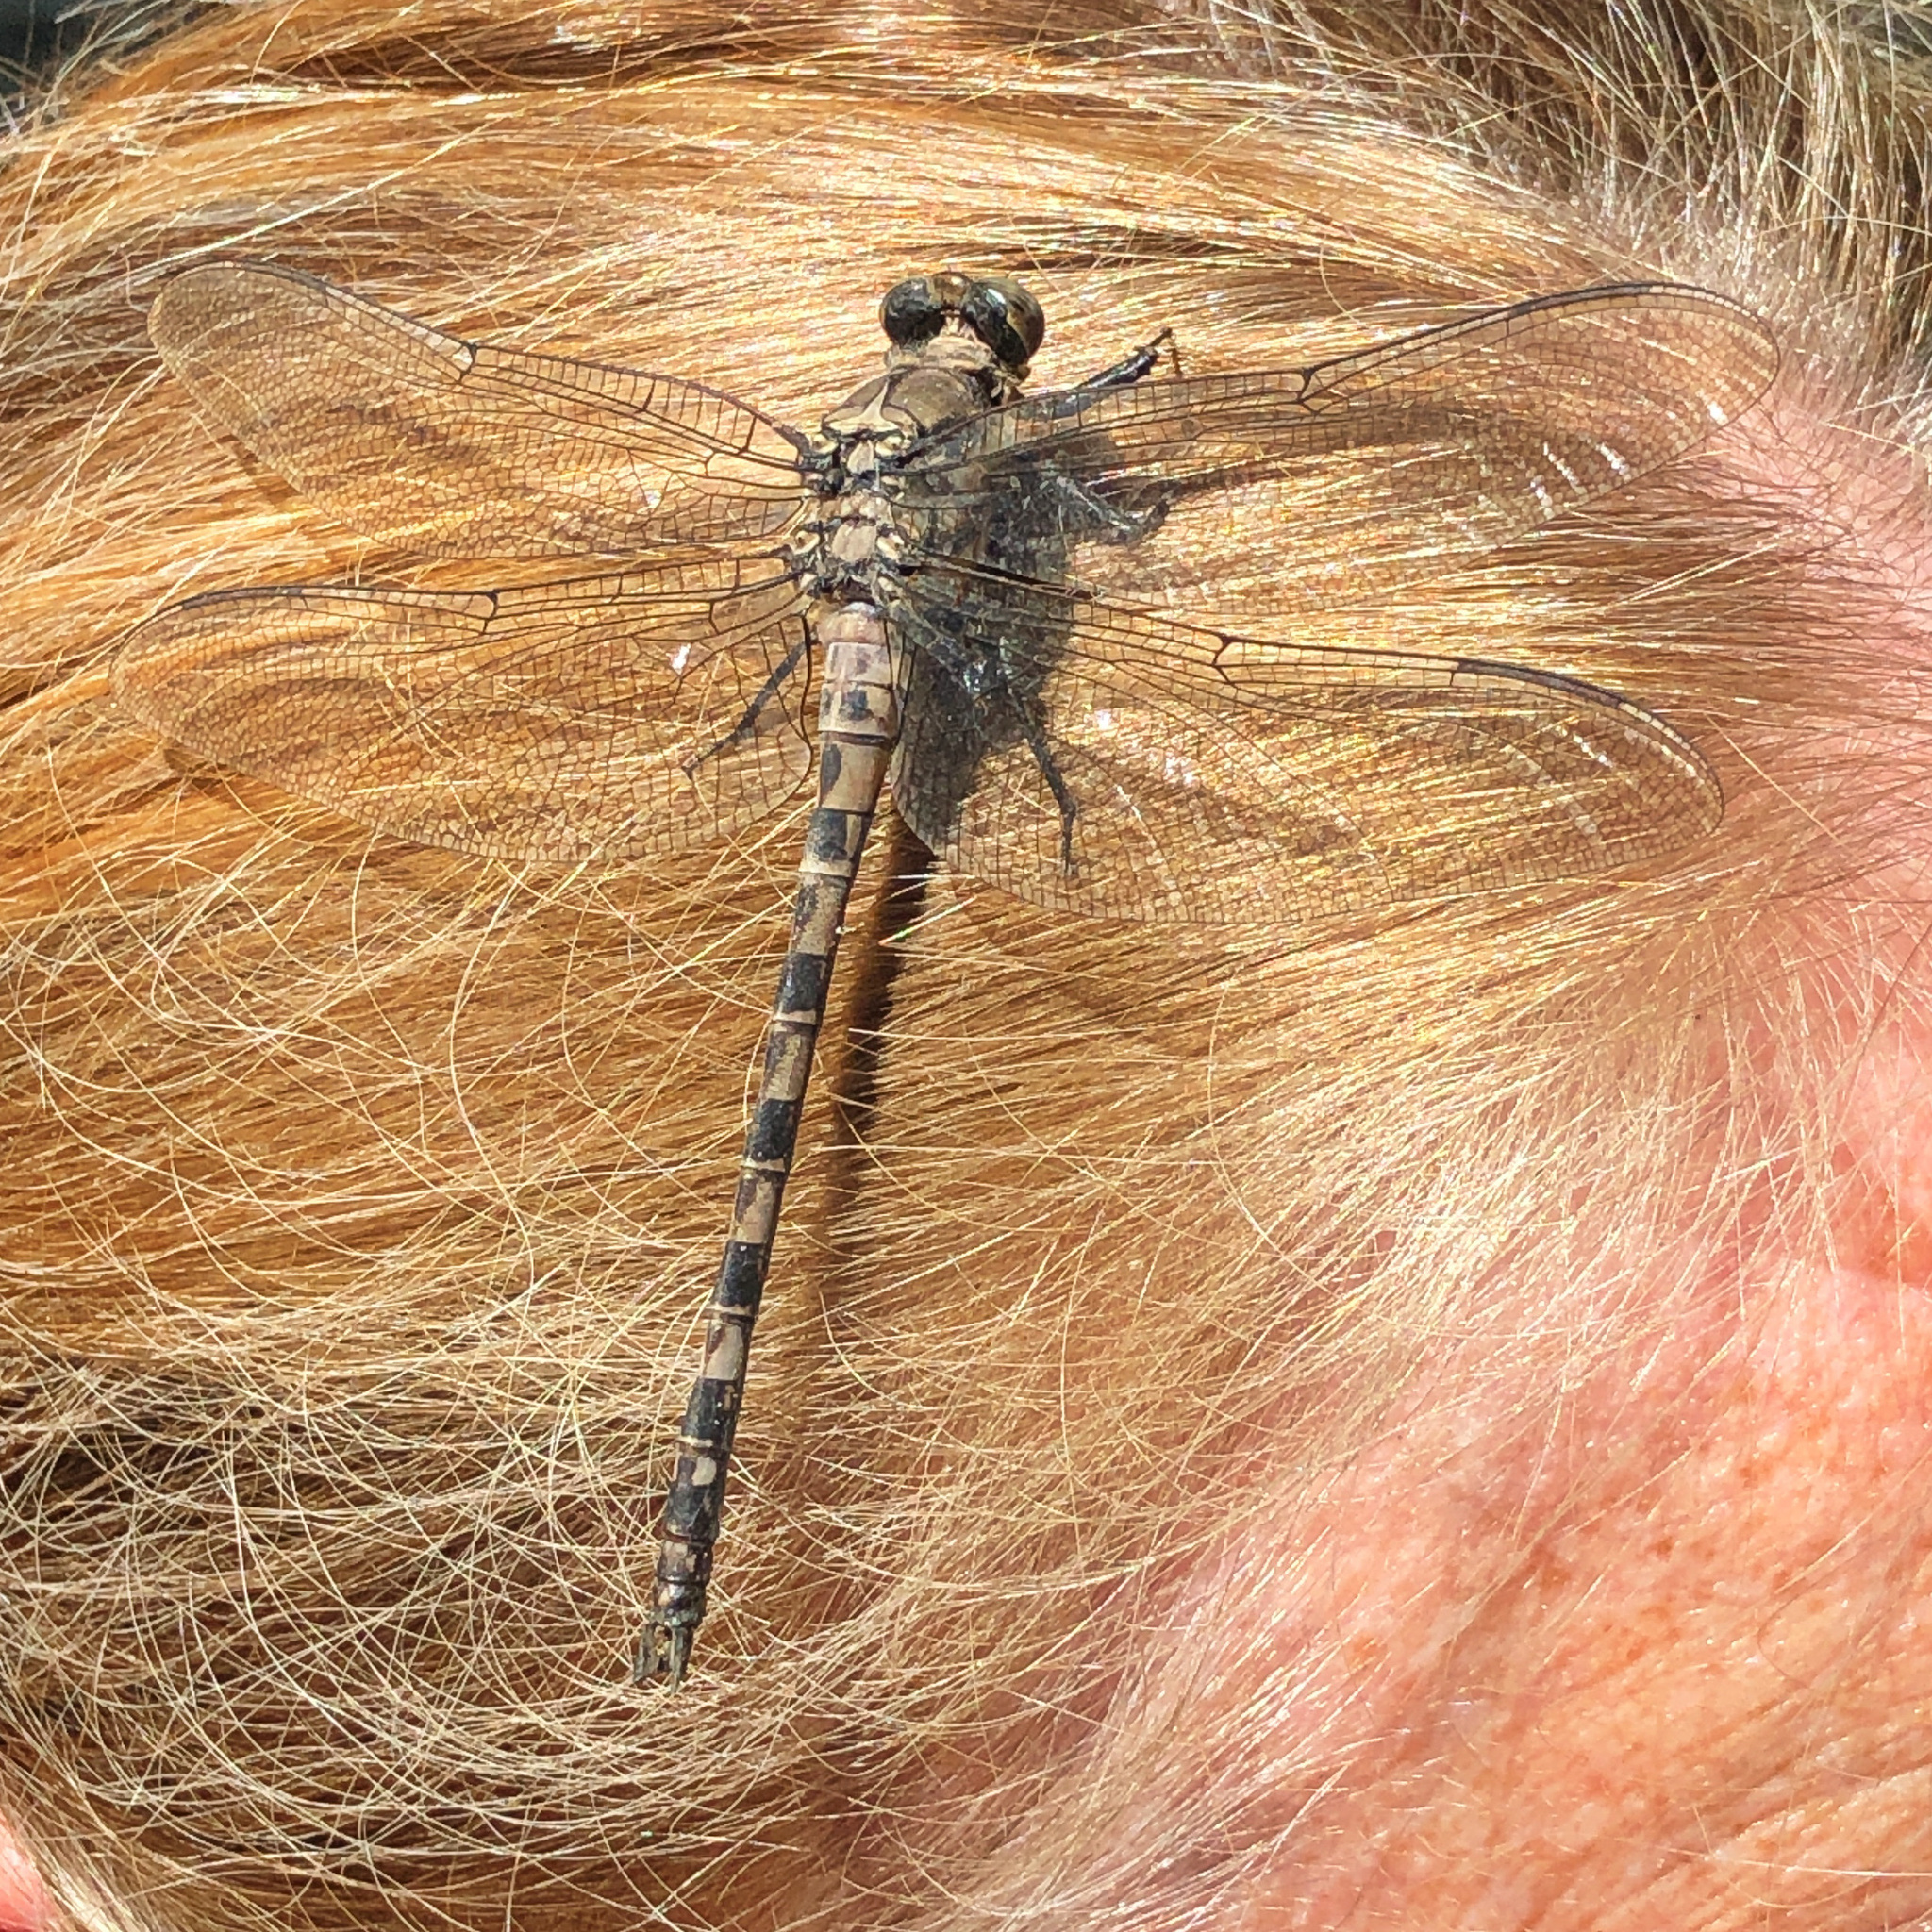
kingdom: Animalia
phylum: Arthropoda
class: Insecta
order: Odonata
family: Petaluridae
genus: Tachopteryx
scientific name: Tachopteryx thoreyi
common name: Gray petaltail
